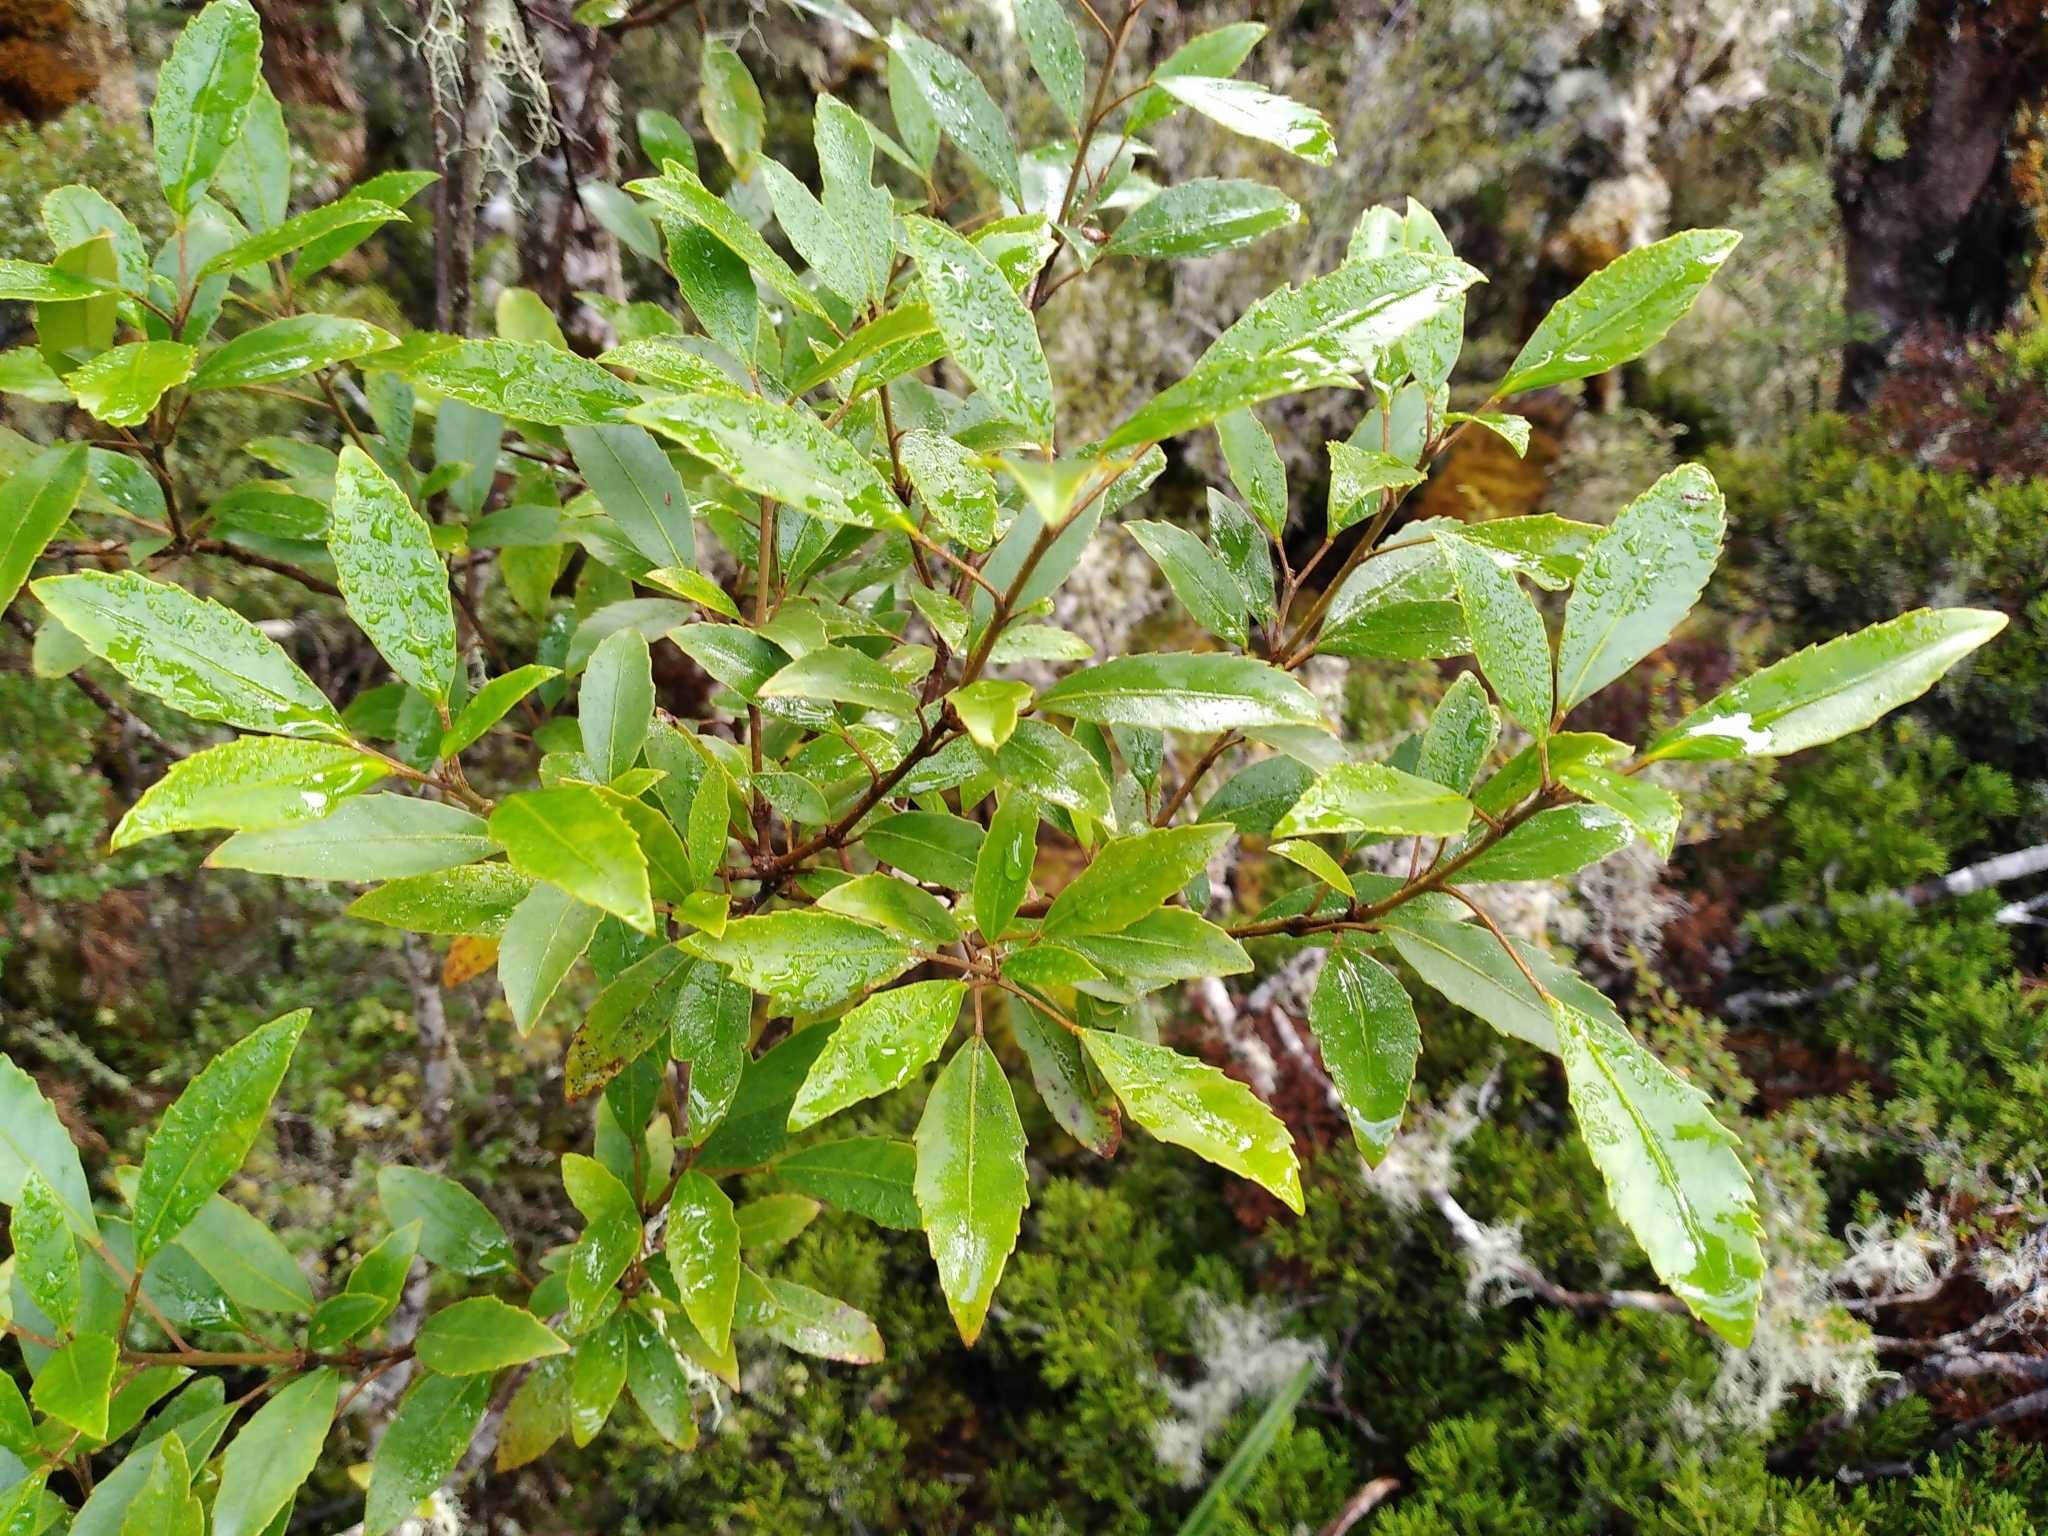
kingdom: Plantae
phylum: Tracheophyta
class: Magnoliopsida
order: Apiales
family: Araliaceae
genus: Raukaua
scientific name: Raukaua simplex
